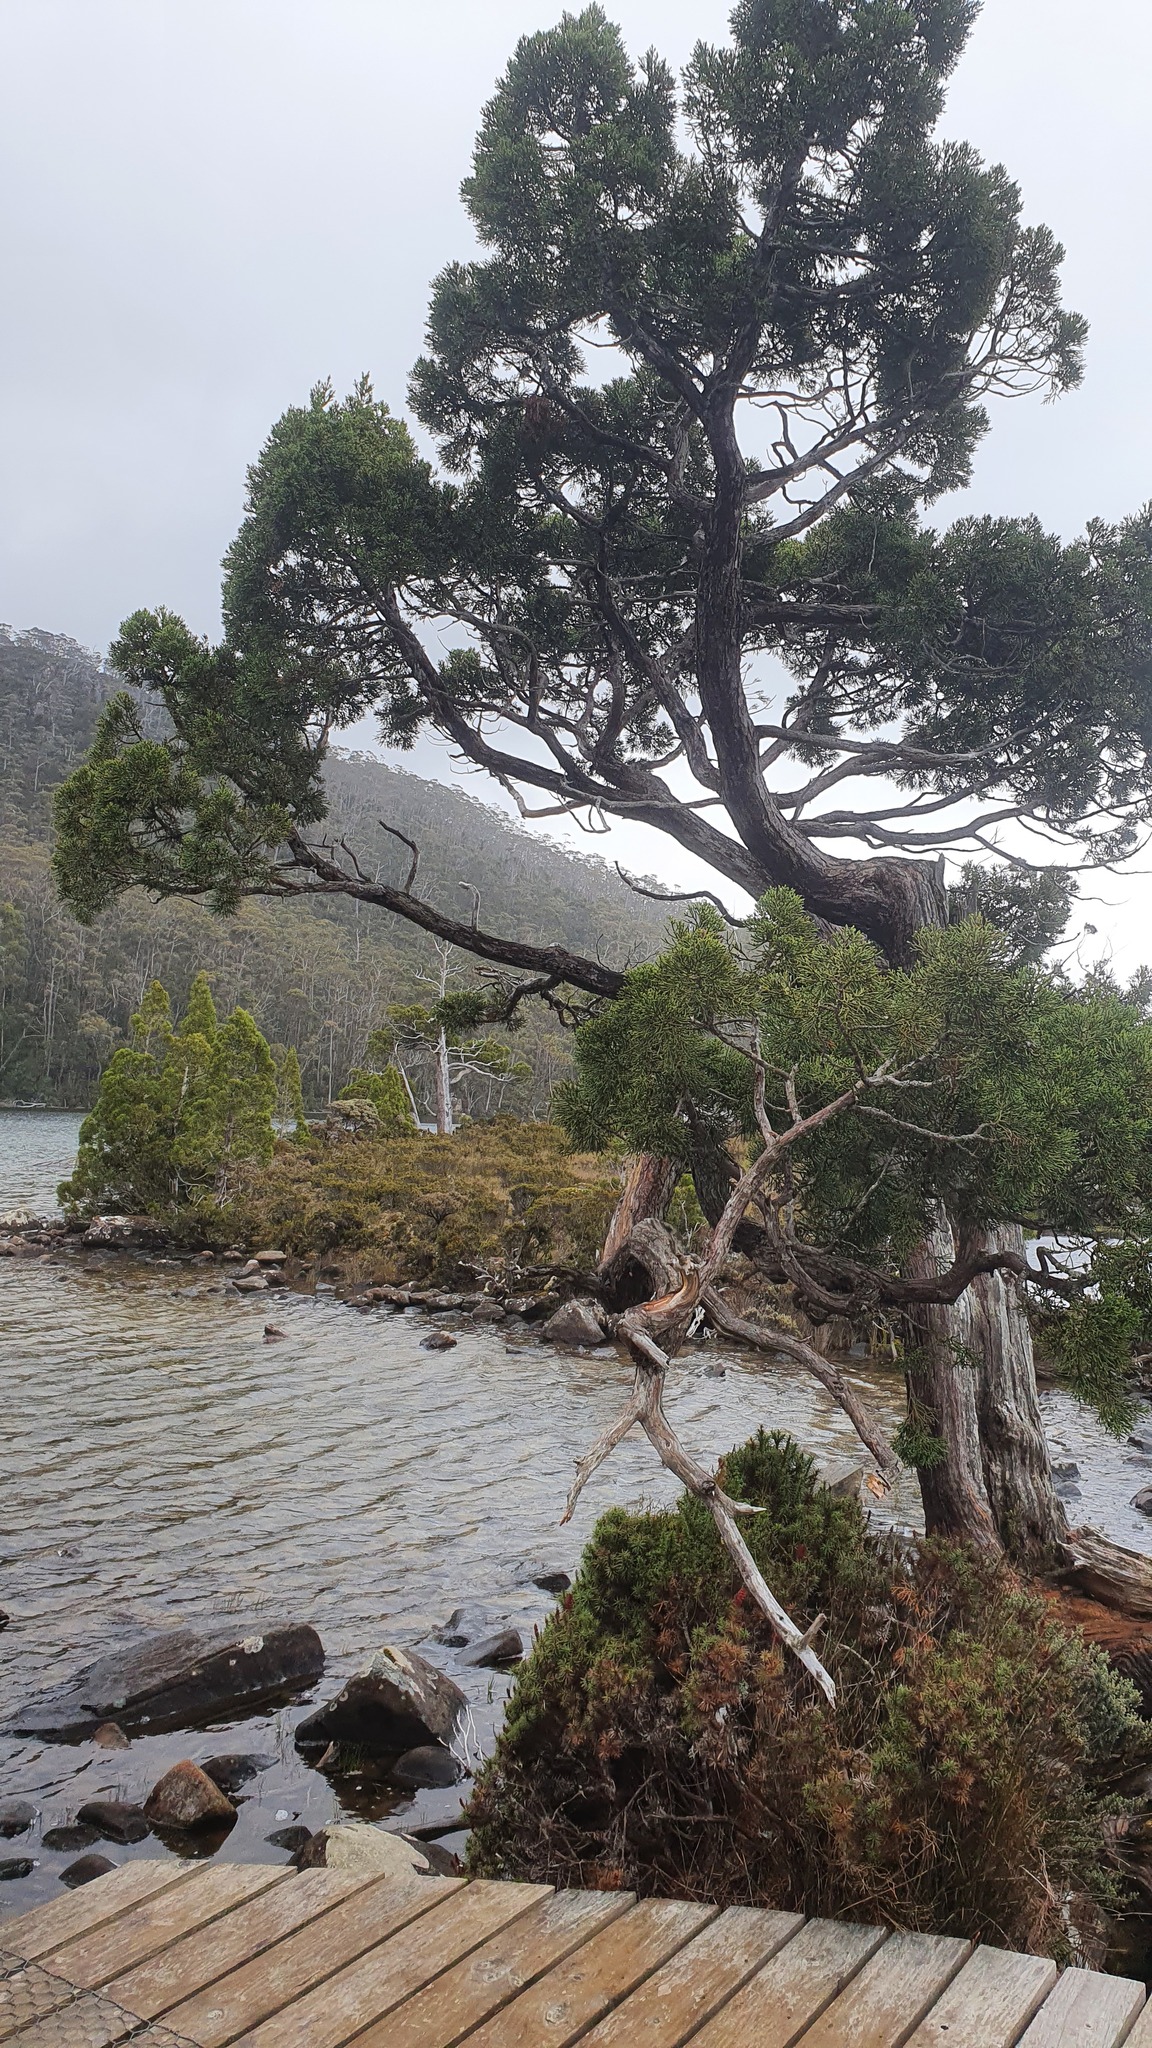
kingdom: Plantae
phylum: Tracheophyta
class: Pinopsida
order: Pinales
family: Cupressaceae
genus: Athrotaxis
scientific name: Athrotaxis cupressoides
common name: Tasmanian pencil pine
